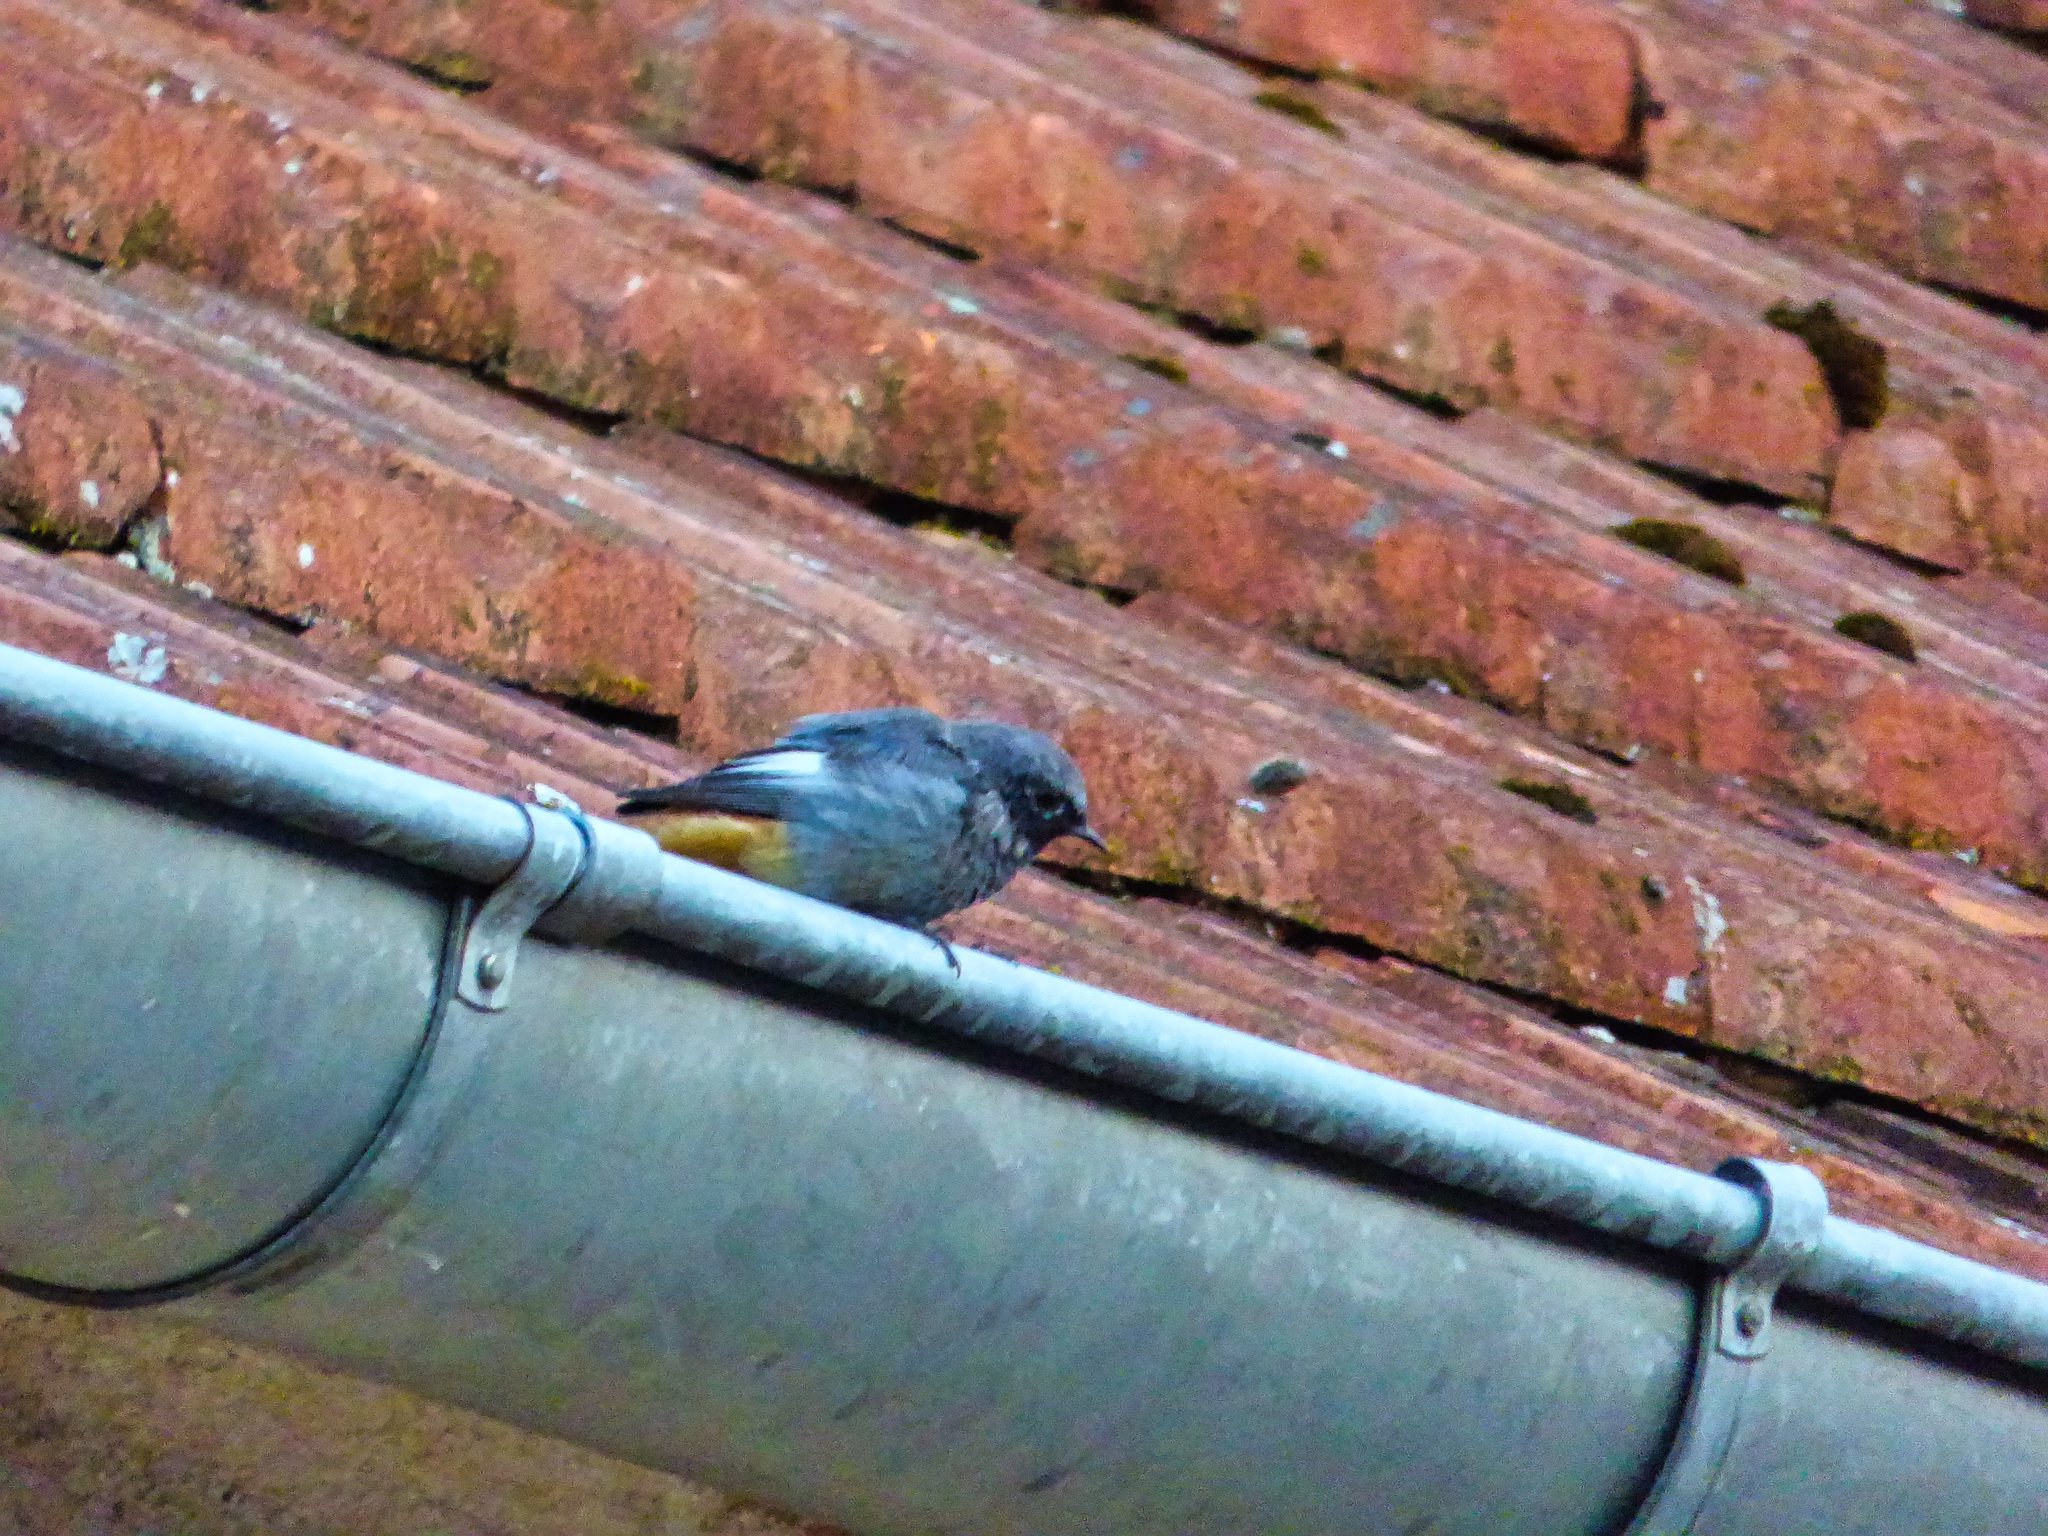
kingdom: Animalia
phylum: Chordata
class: Aves
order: Passeriformes
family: Muscicapidae
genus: Phoenicurus
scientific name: Phoenicurus ochruros
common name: Black redstart
